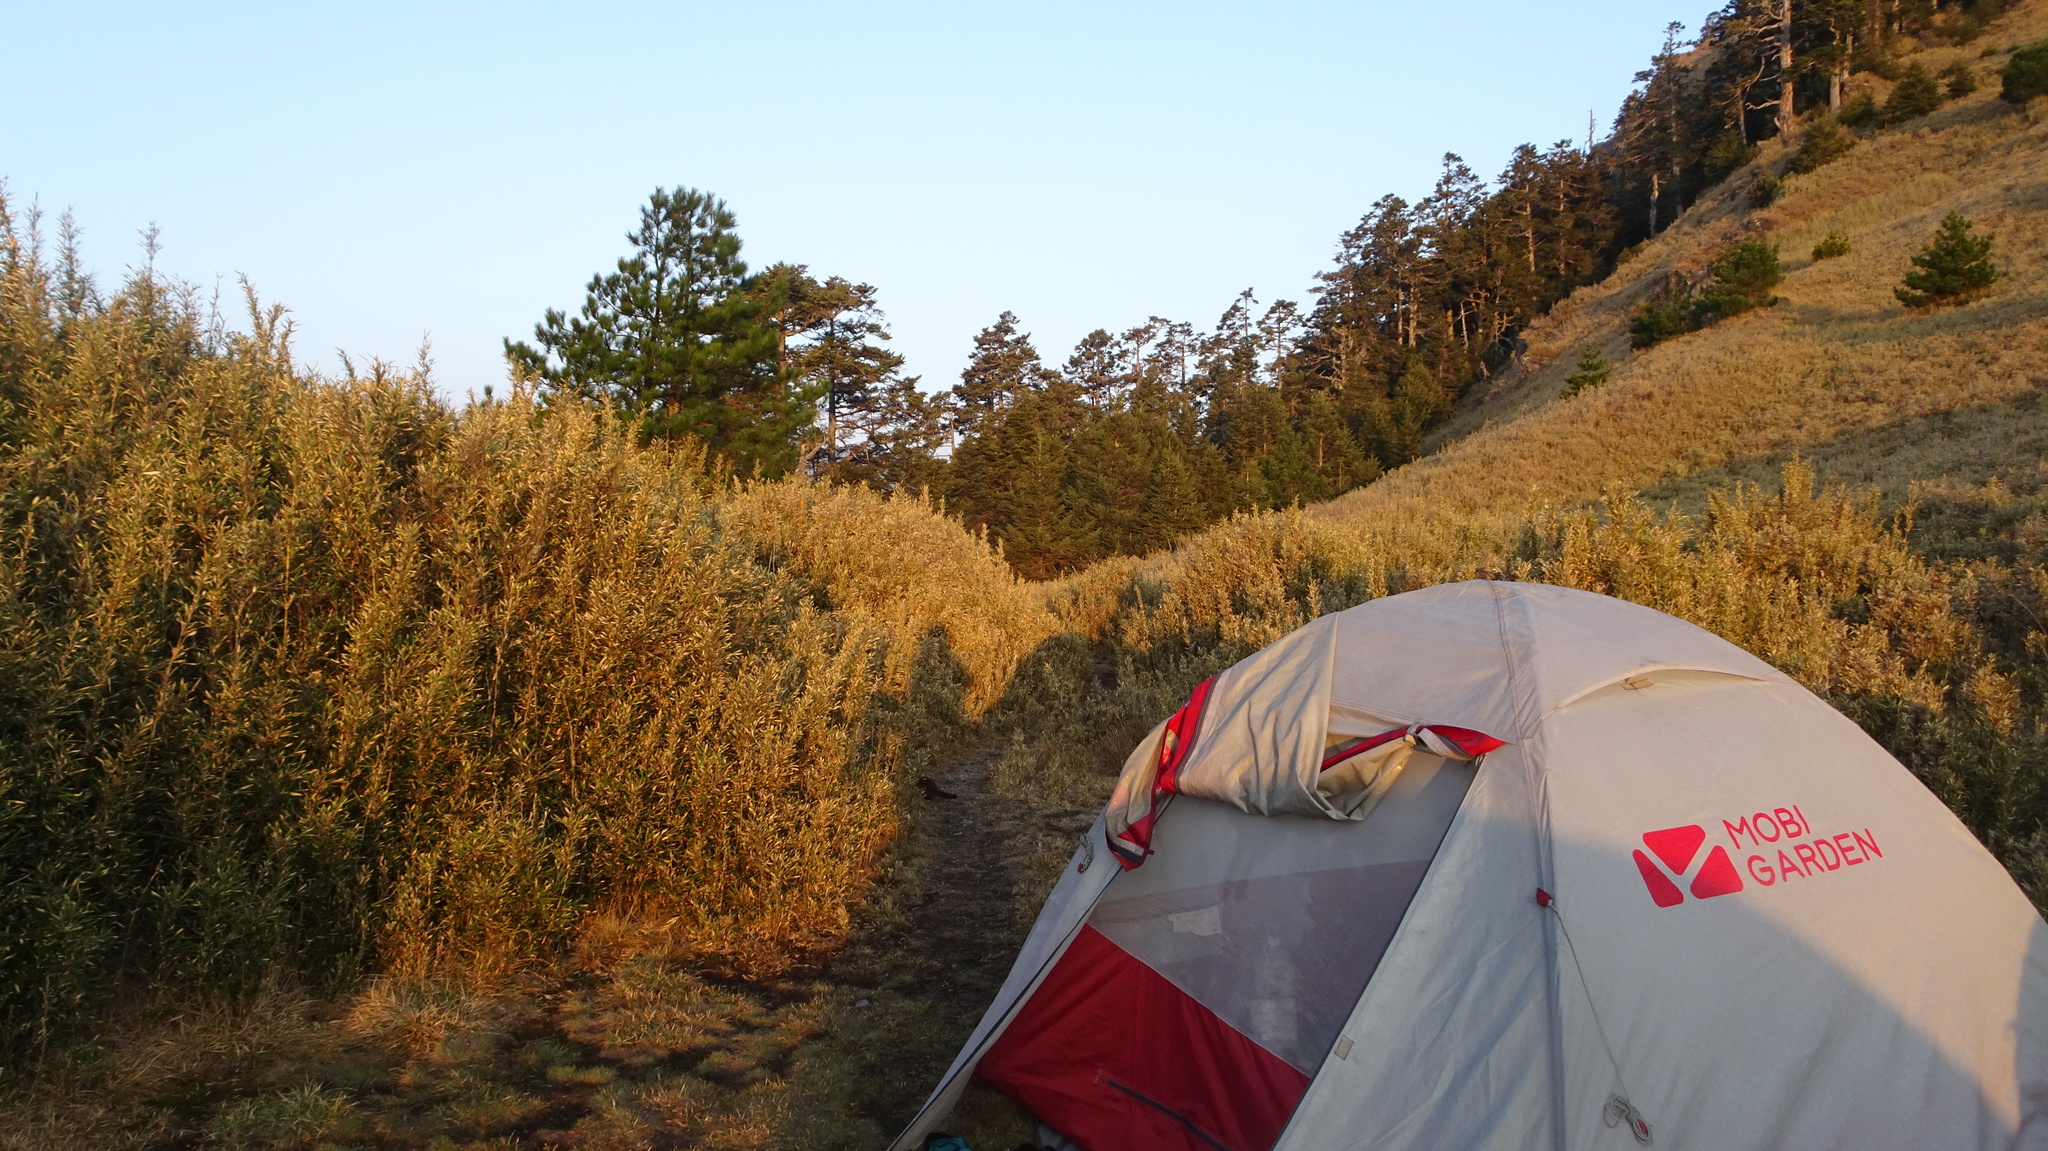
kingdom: Animalia
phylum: Chordata
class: Mammalia
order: Carnivora
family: Mustelidae
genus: Mustela
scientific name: Mustela sibirica
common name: Siberian weasel
